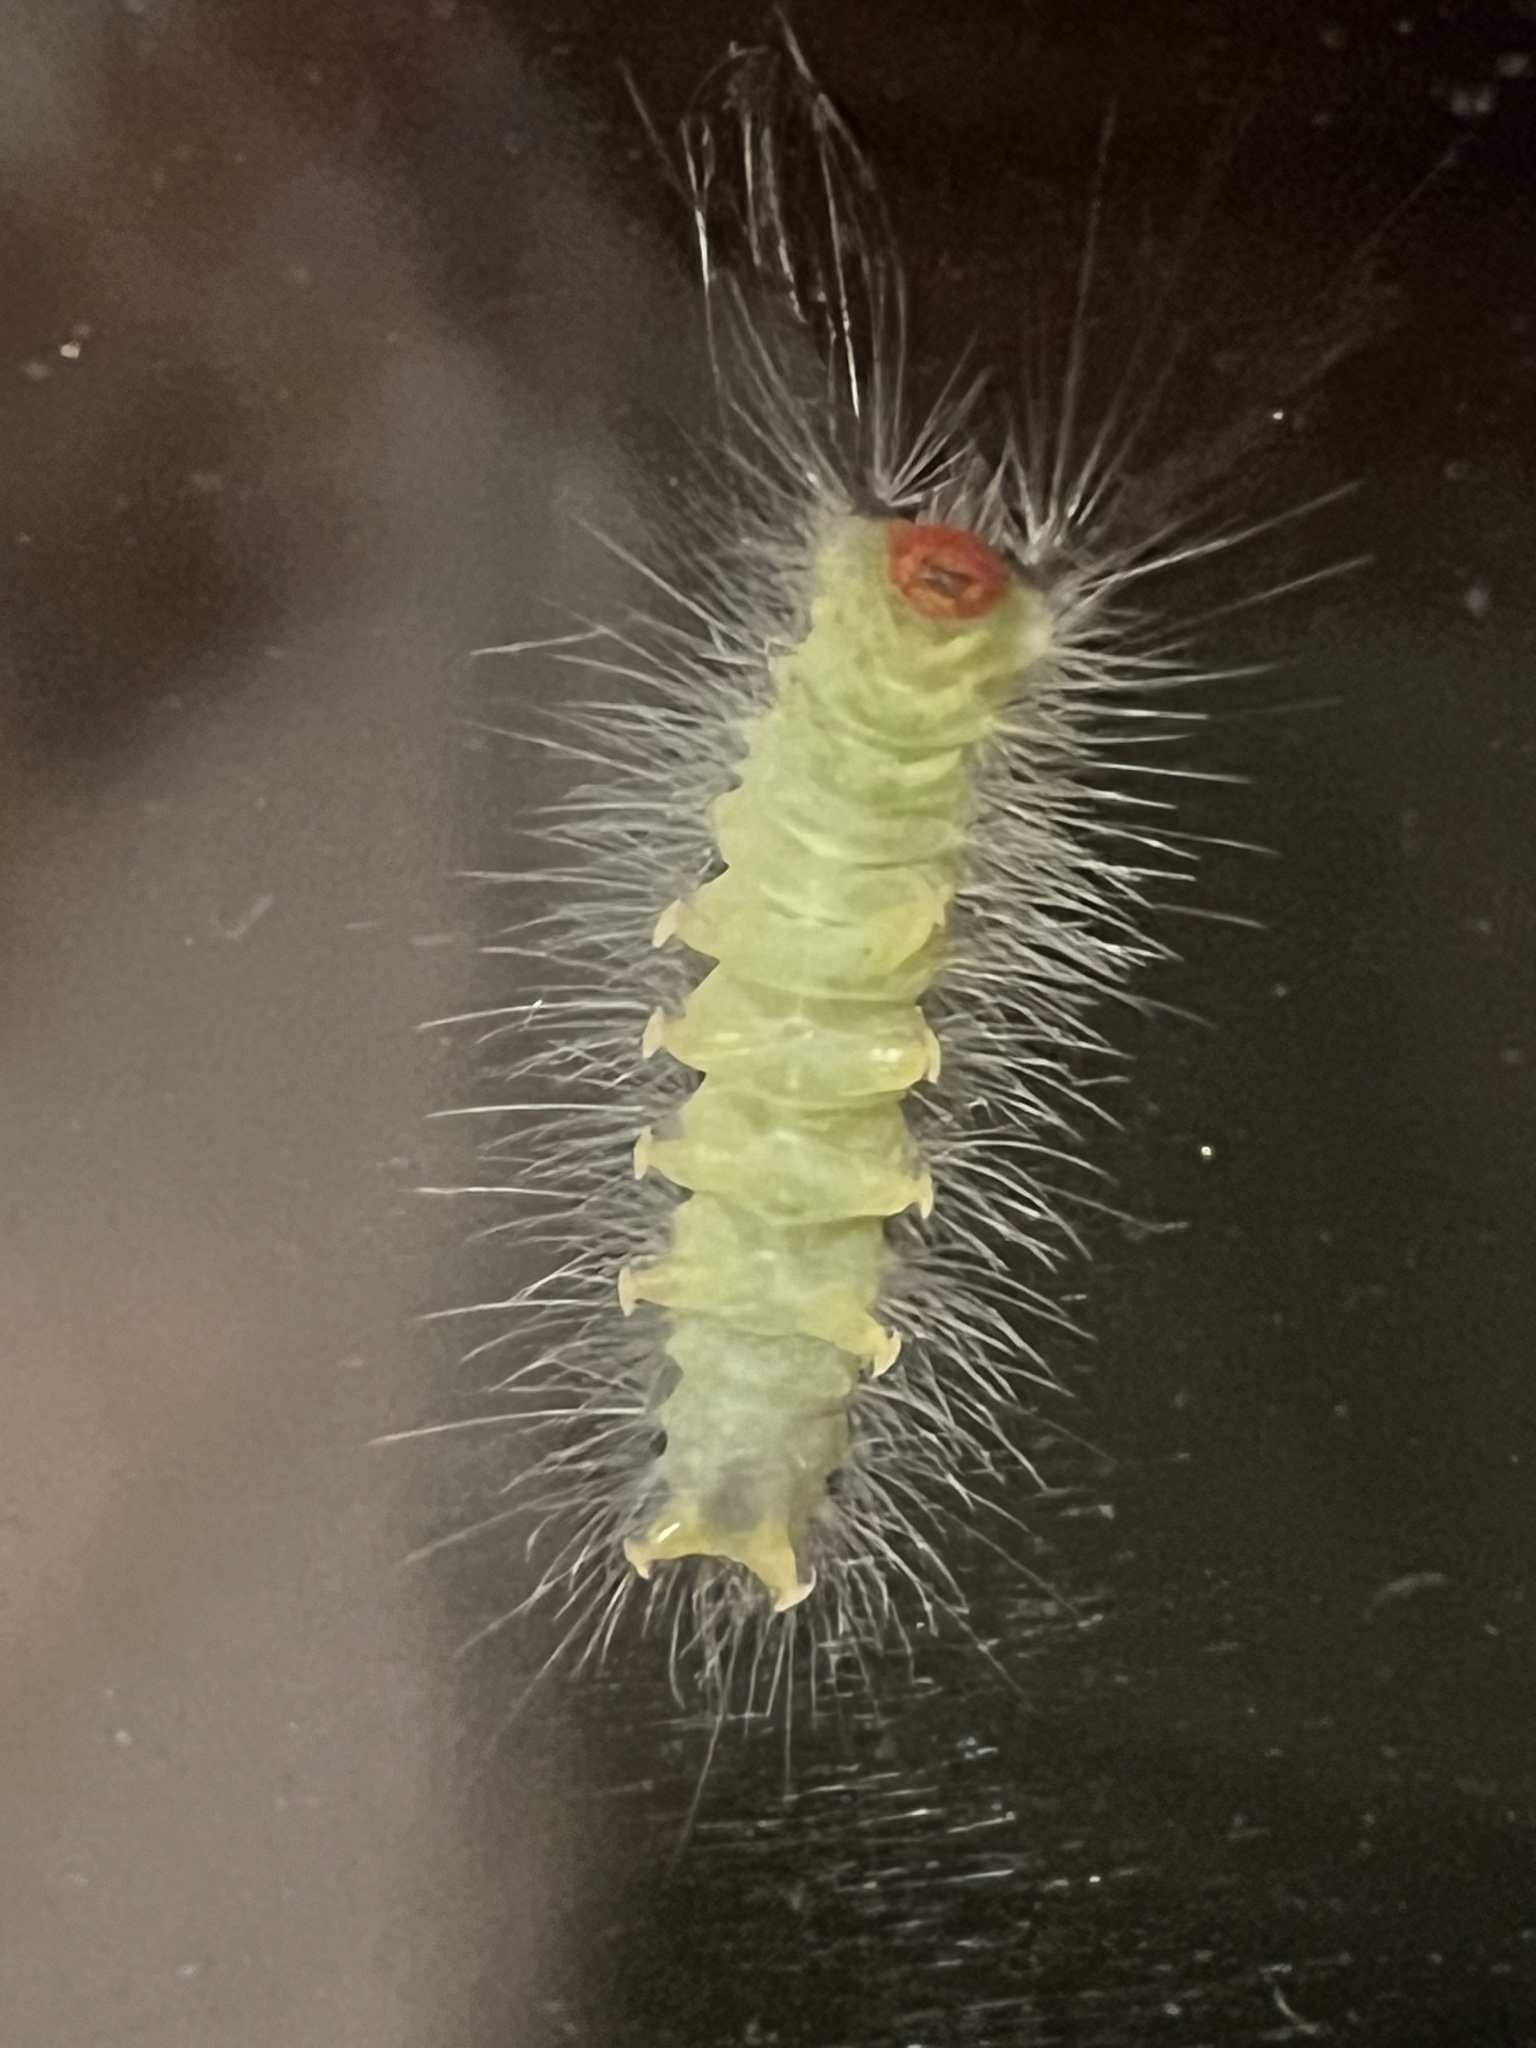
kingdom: Animalia
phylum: Arthropoda
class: Insecta
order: Lepidoptera
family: Erebidae
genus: Hyphantria
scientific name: Hyphantria cunea
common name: American white moth
